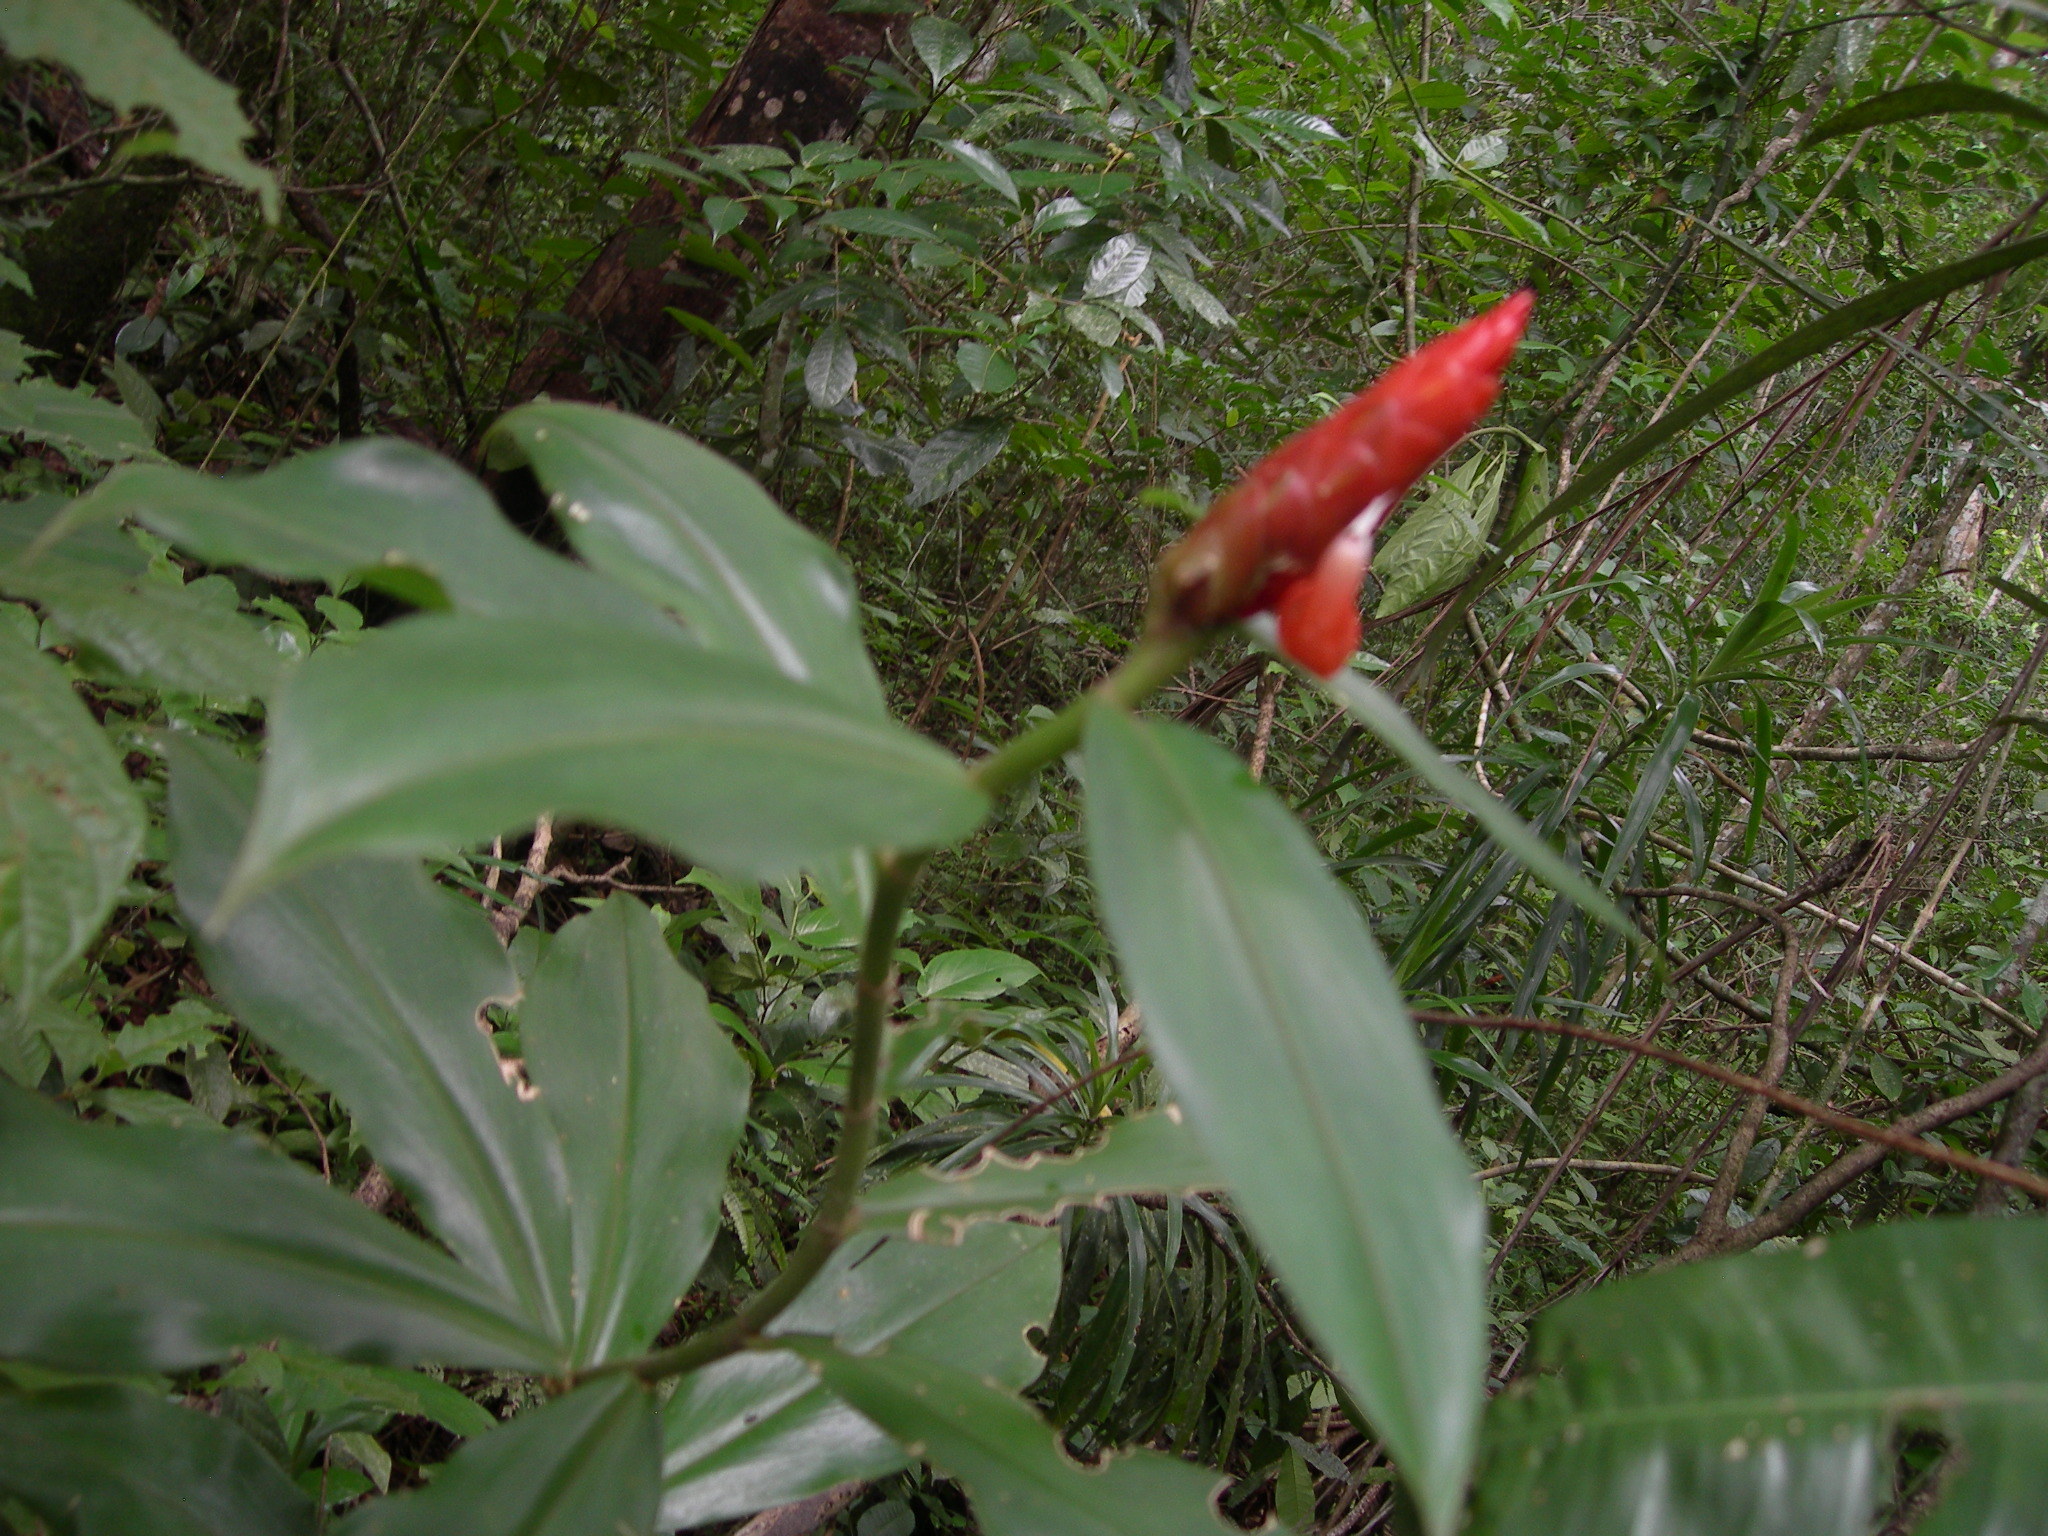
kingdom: Plantae
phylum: Tracheophyta
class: Liliopsida
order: Zingiberales
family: Costaceae
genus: Costus
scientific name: Costus pulverulentus
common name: Spiral ginger
